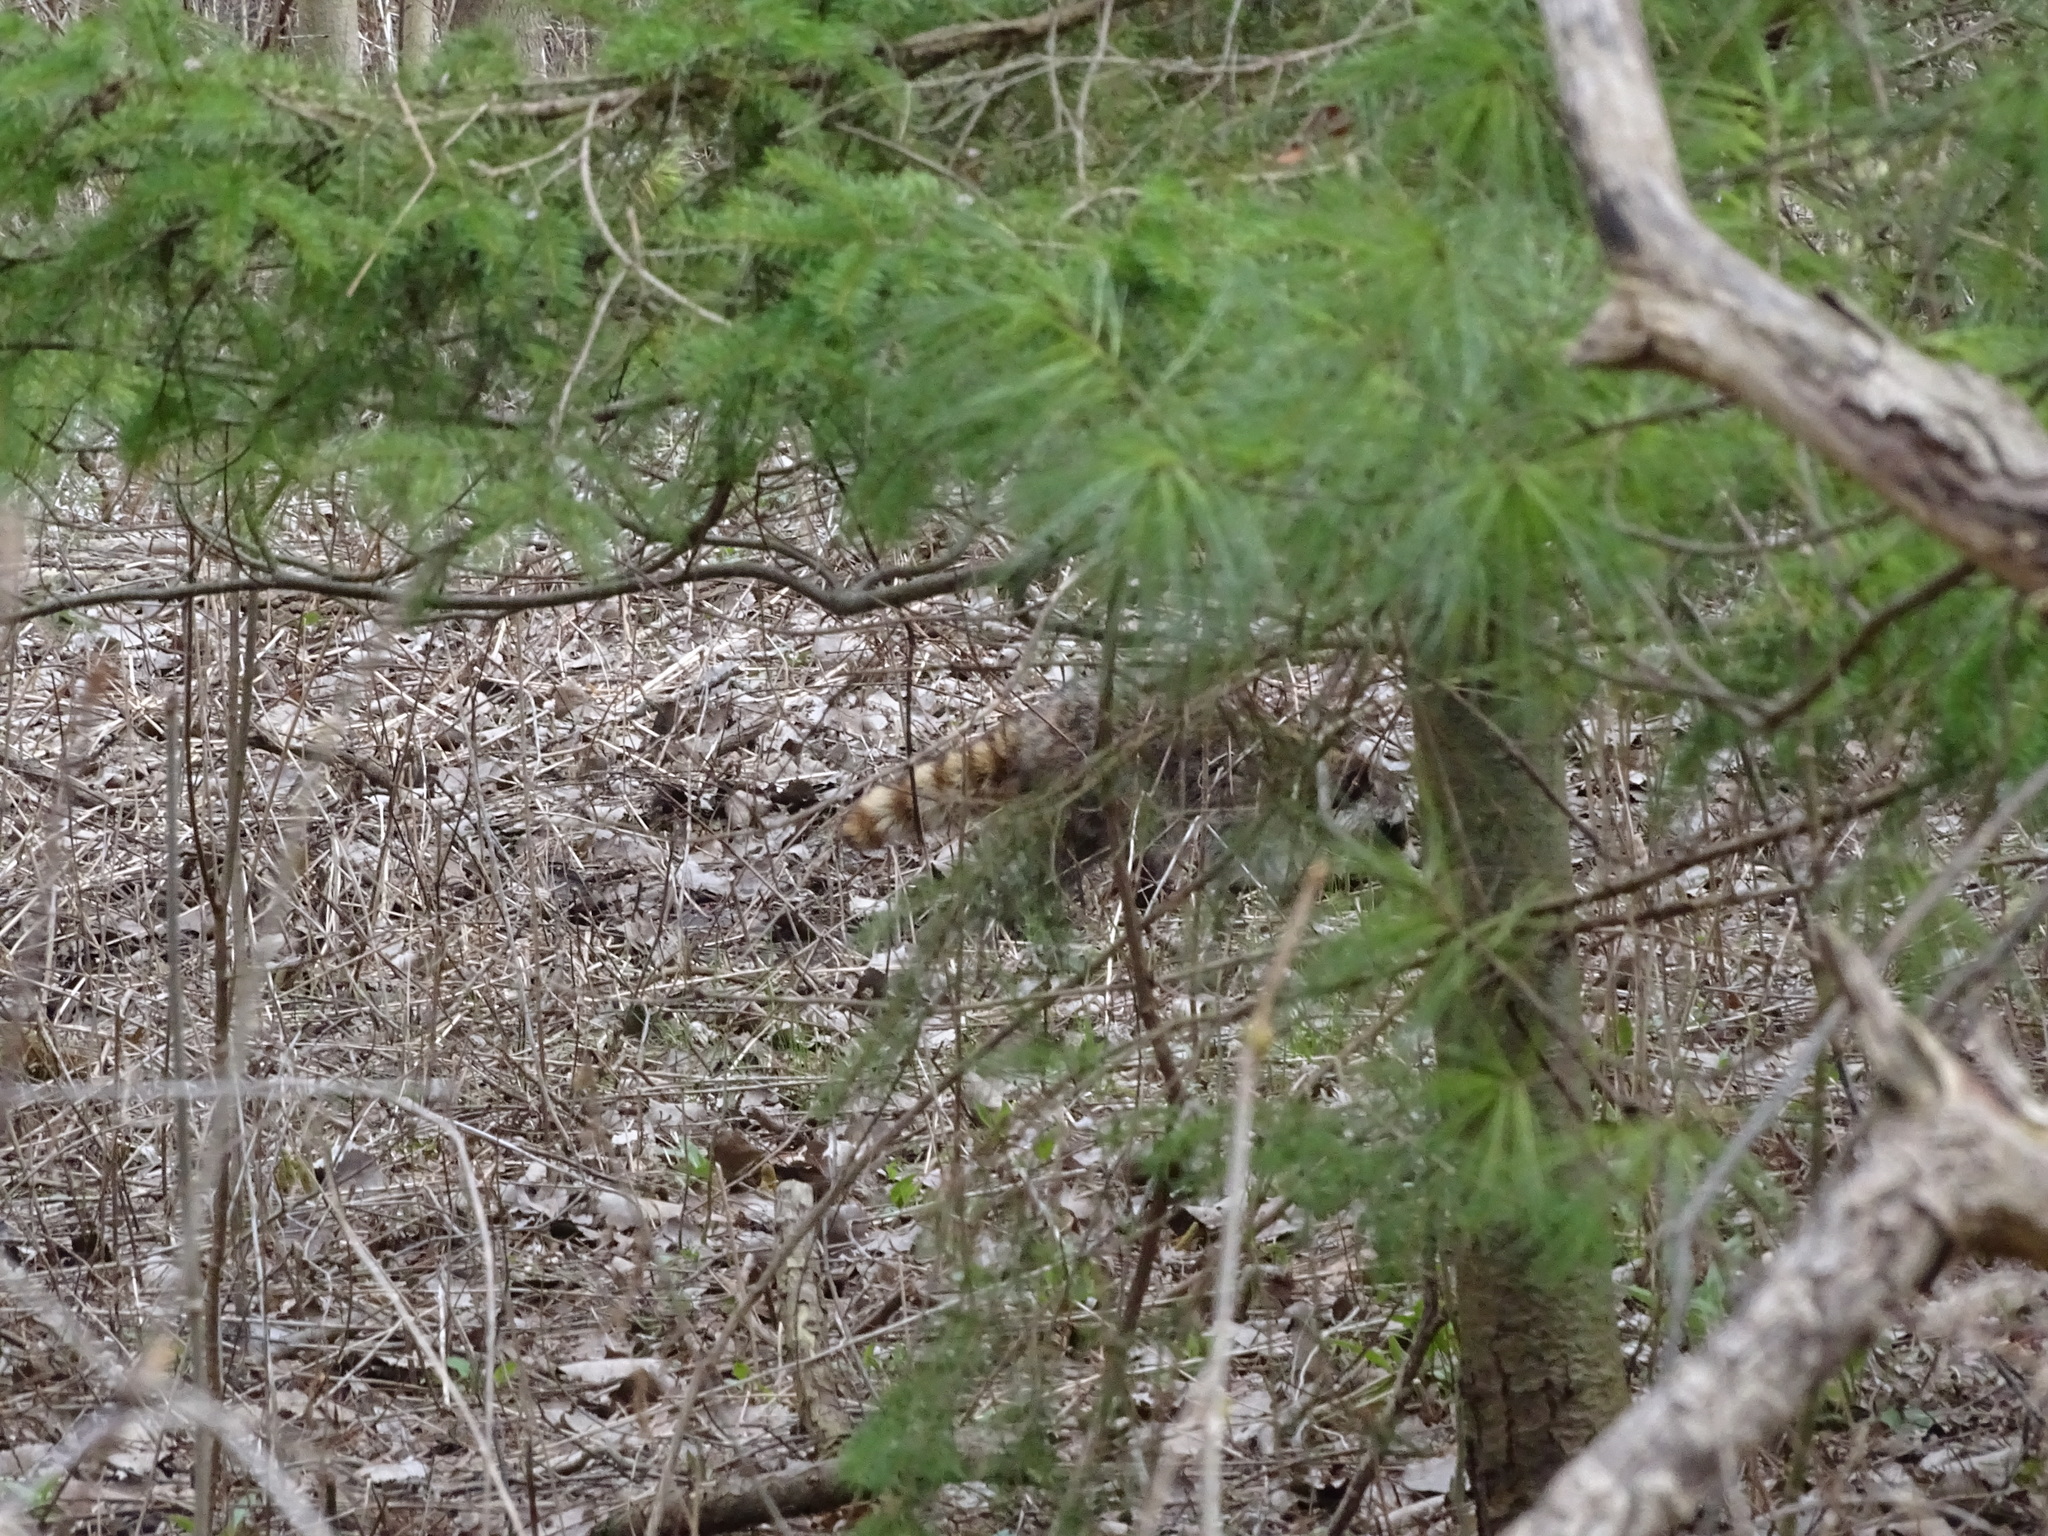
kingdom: Animalia
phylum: Chordata
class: Mammalia
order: Carnivora
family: Procyonidae
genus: Procyon
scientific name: Procyon lotor
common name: Raccoon
